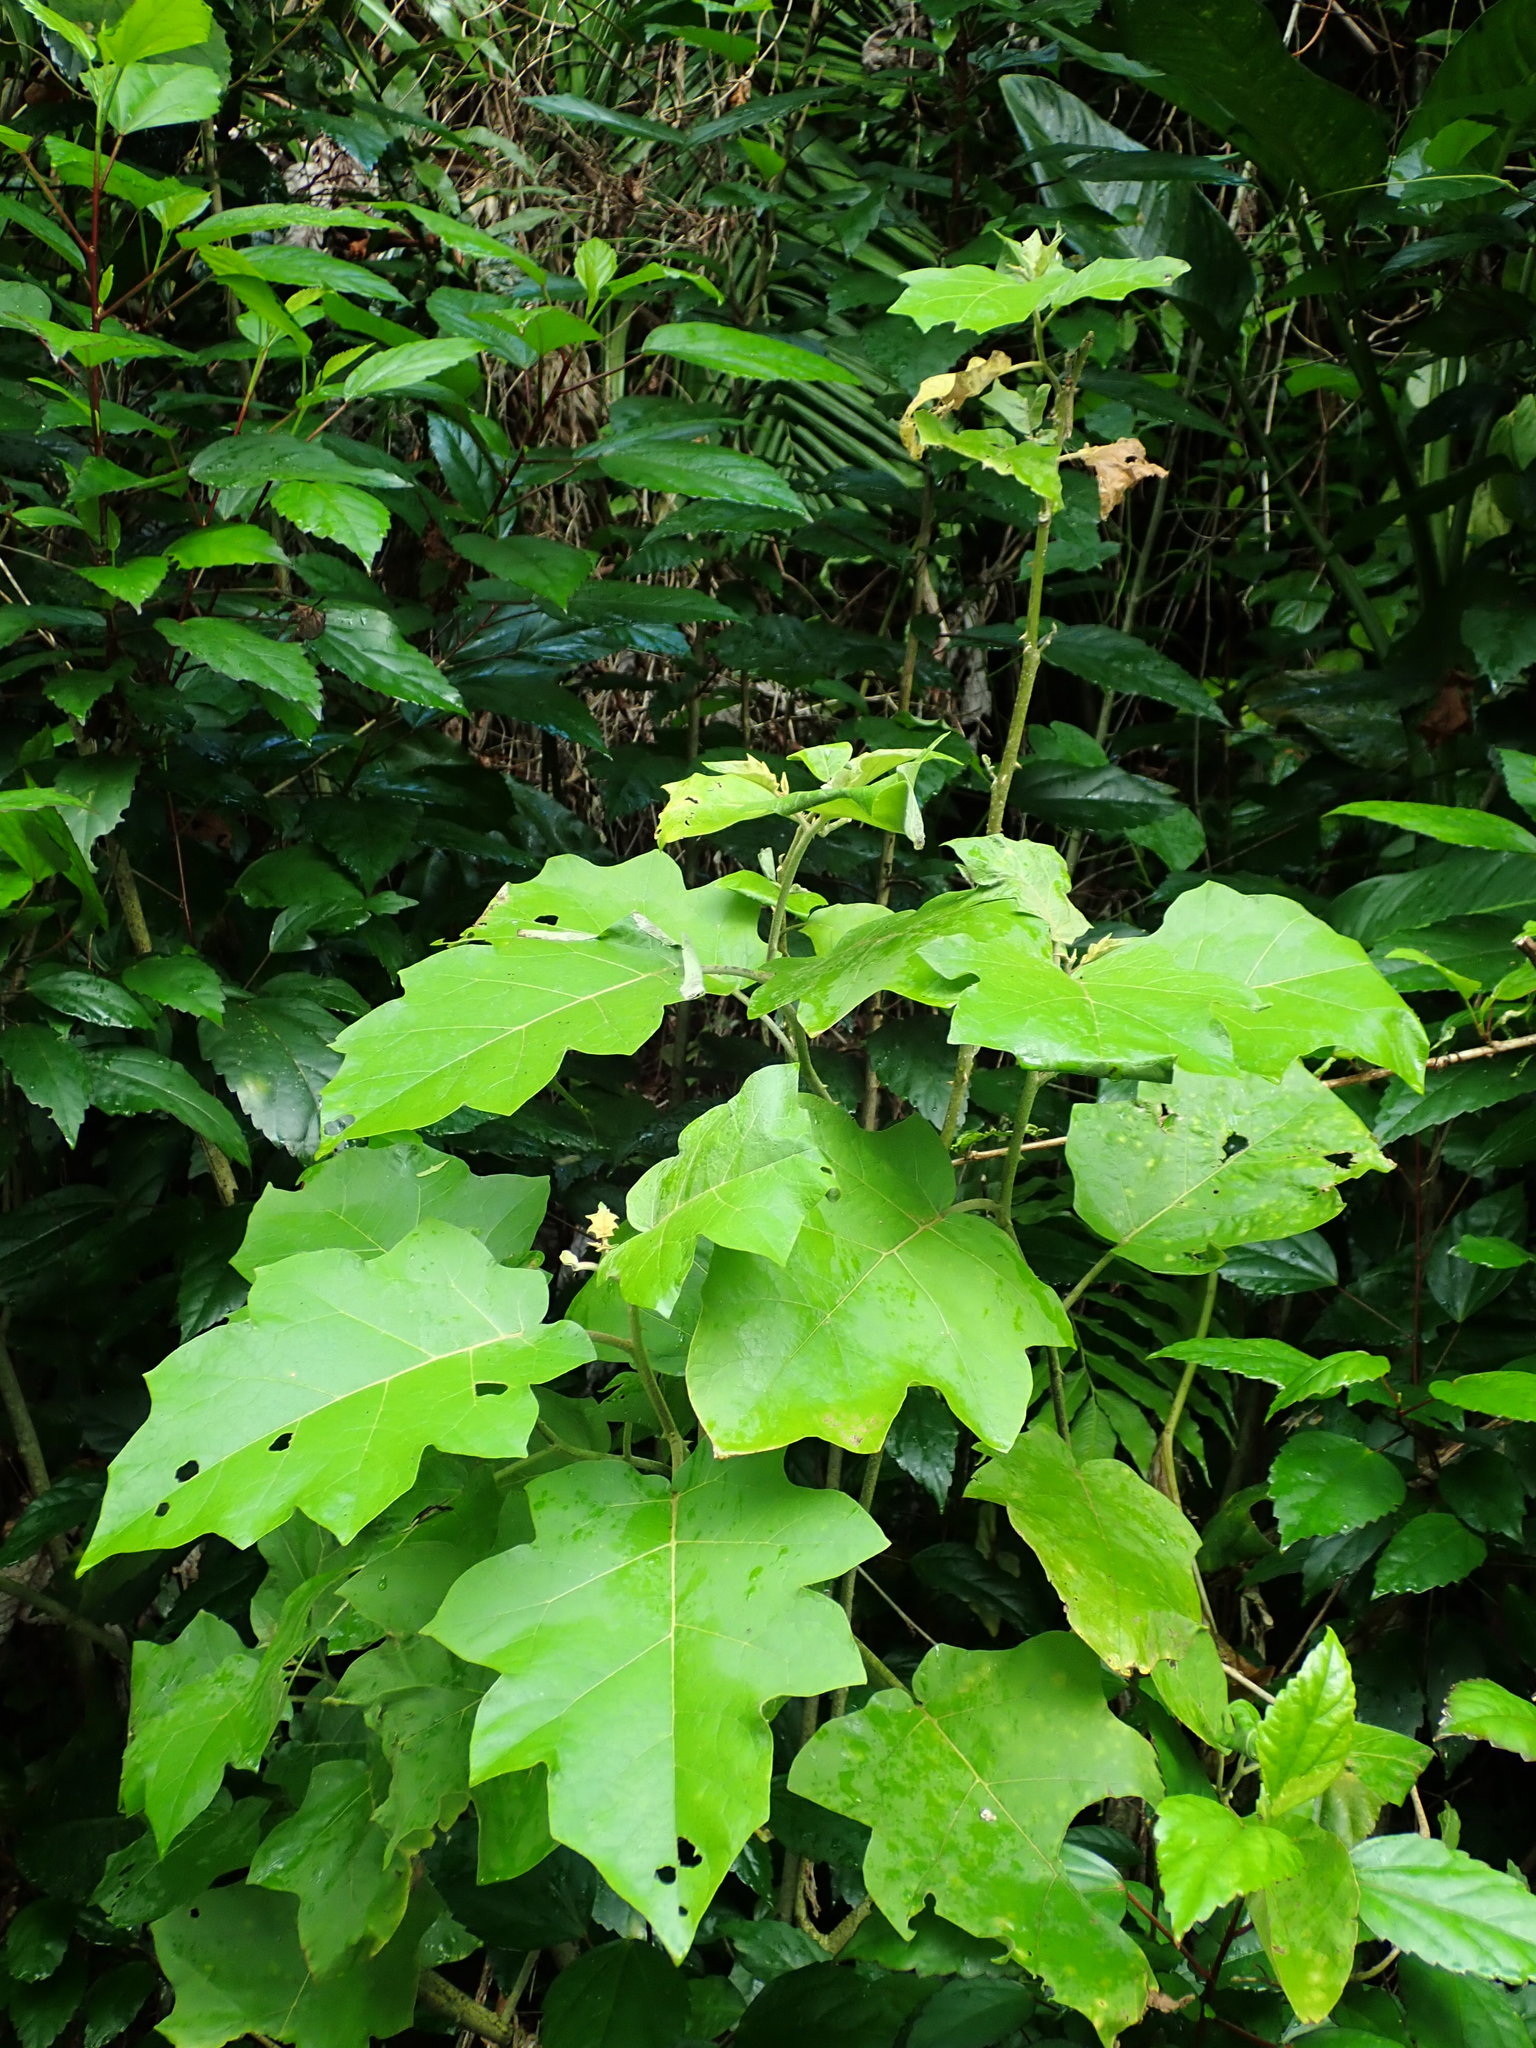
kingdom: Plantae
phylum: Tracheophyta
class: Magnoliopsida
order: Solanales
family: Solanaceae
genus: Solanum
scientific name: Solanum torvum
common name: Turkey berry
